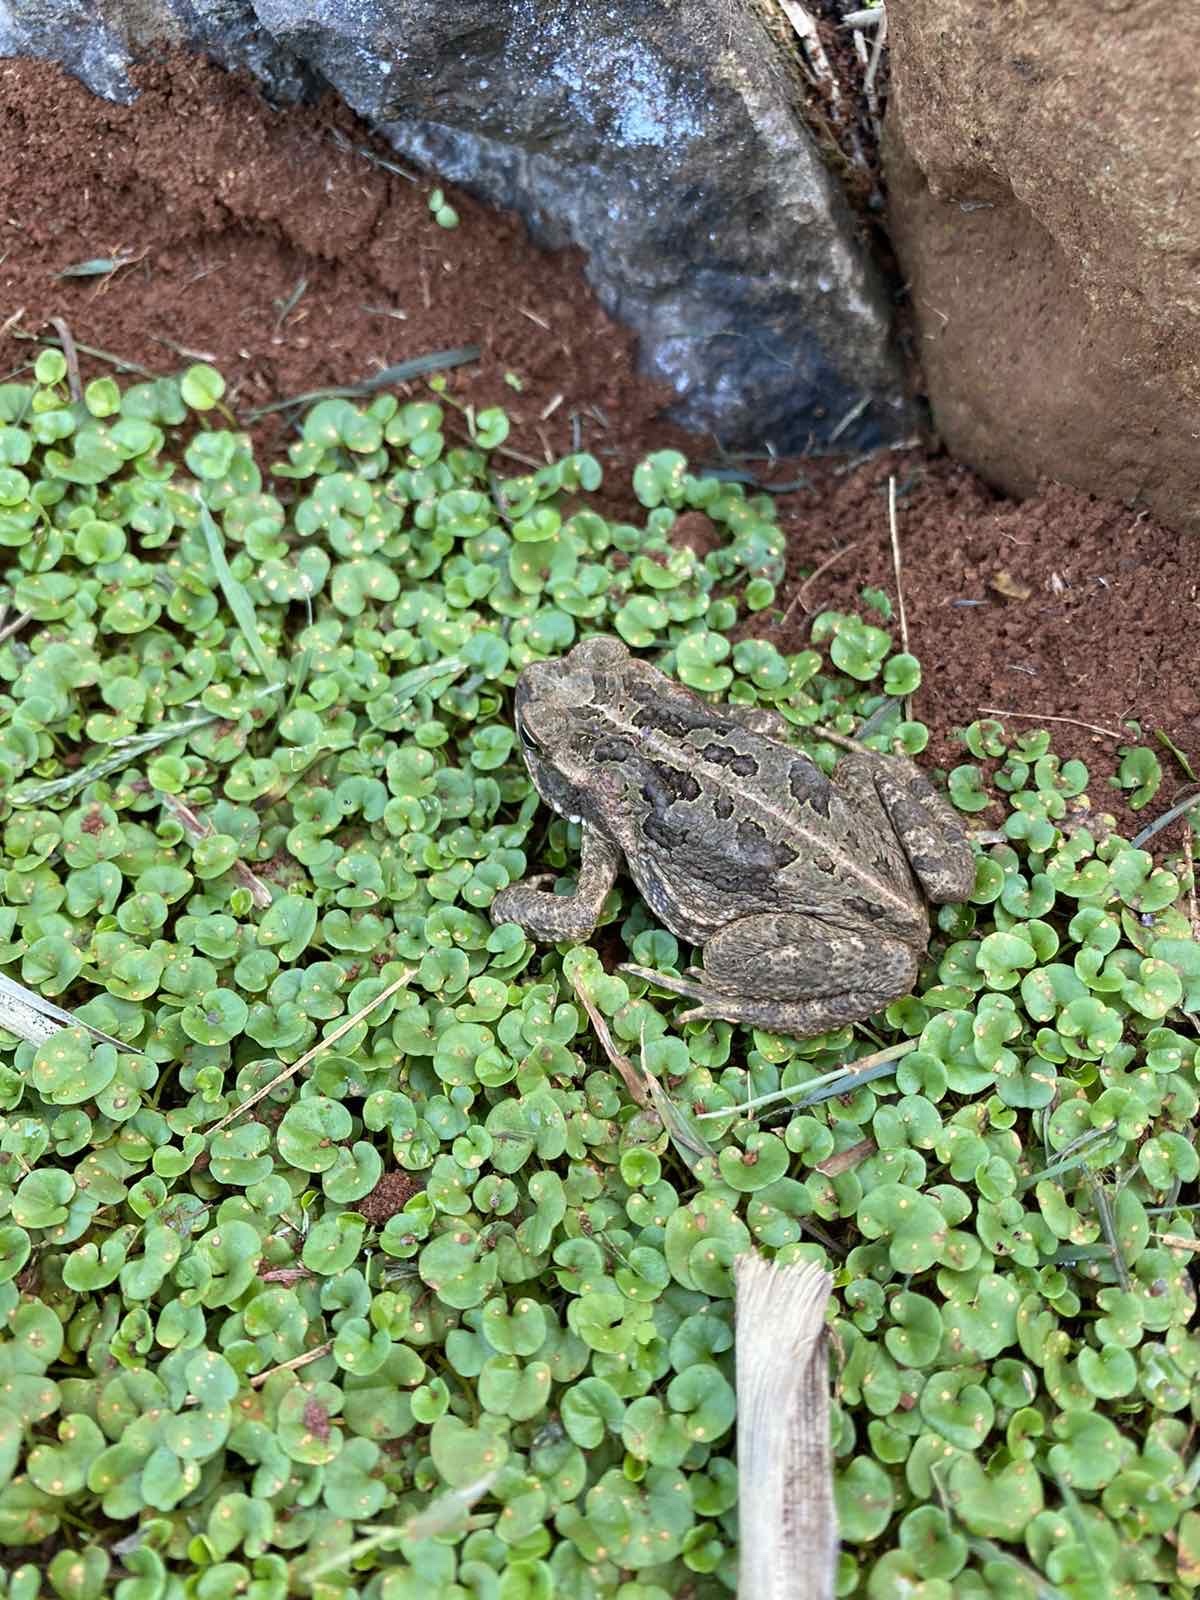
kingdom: Animalia
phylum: Chordata
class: Amphibia
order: Anura
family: Bufonidae
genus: Rhinella
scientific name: Rhinella marina
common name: Cane toad
